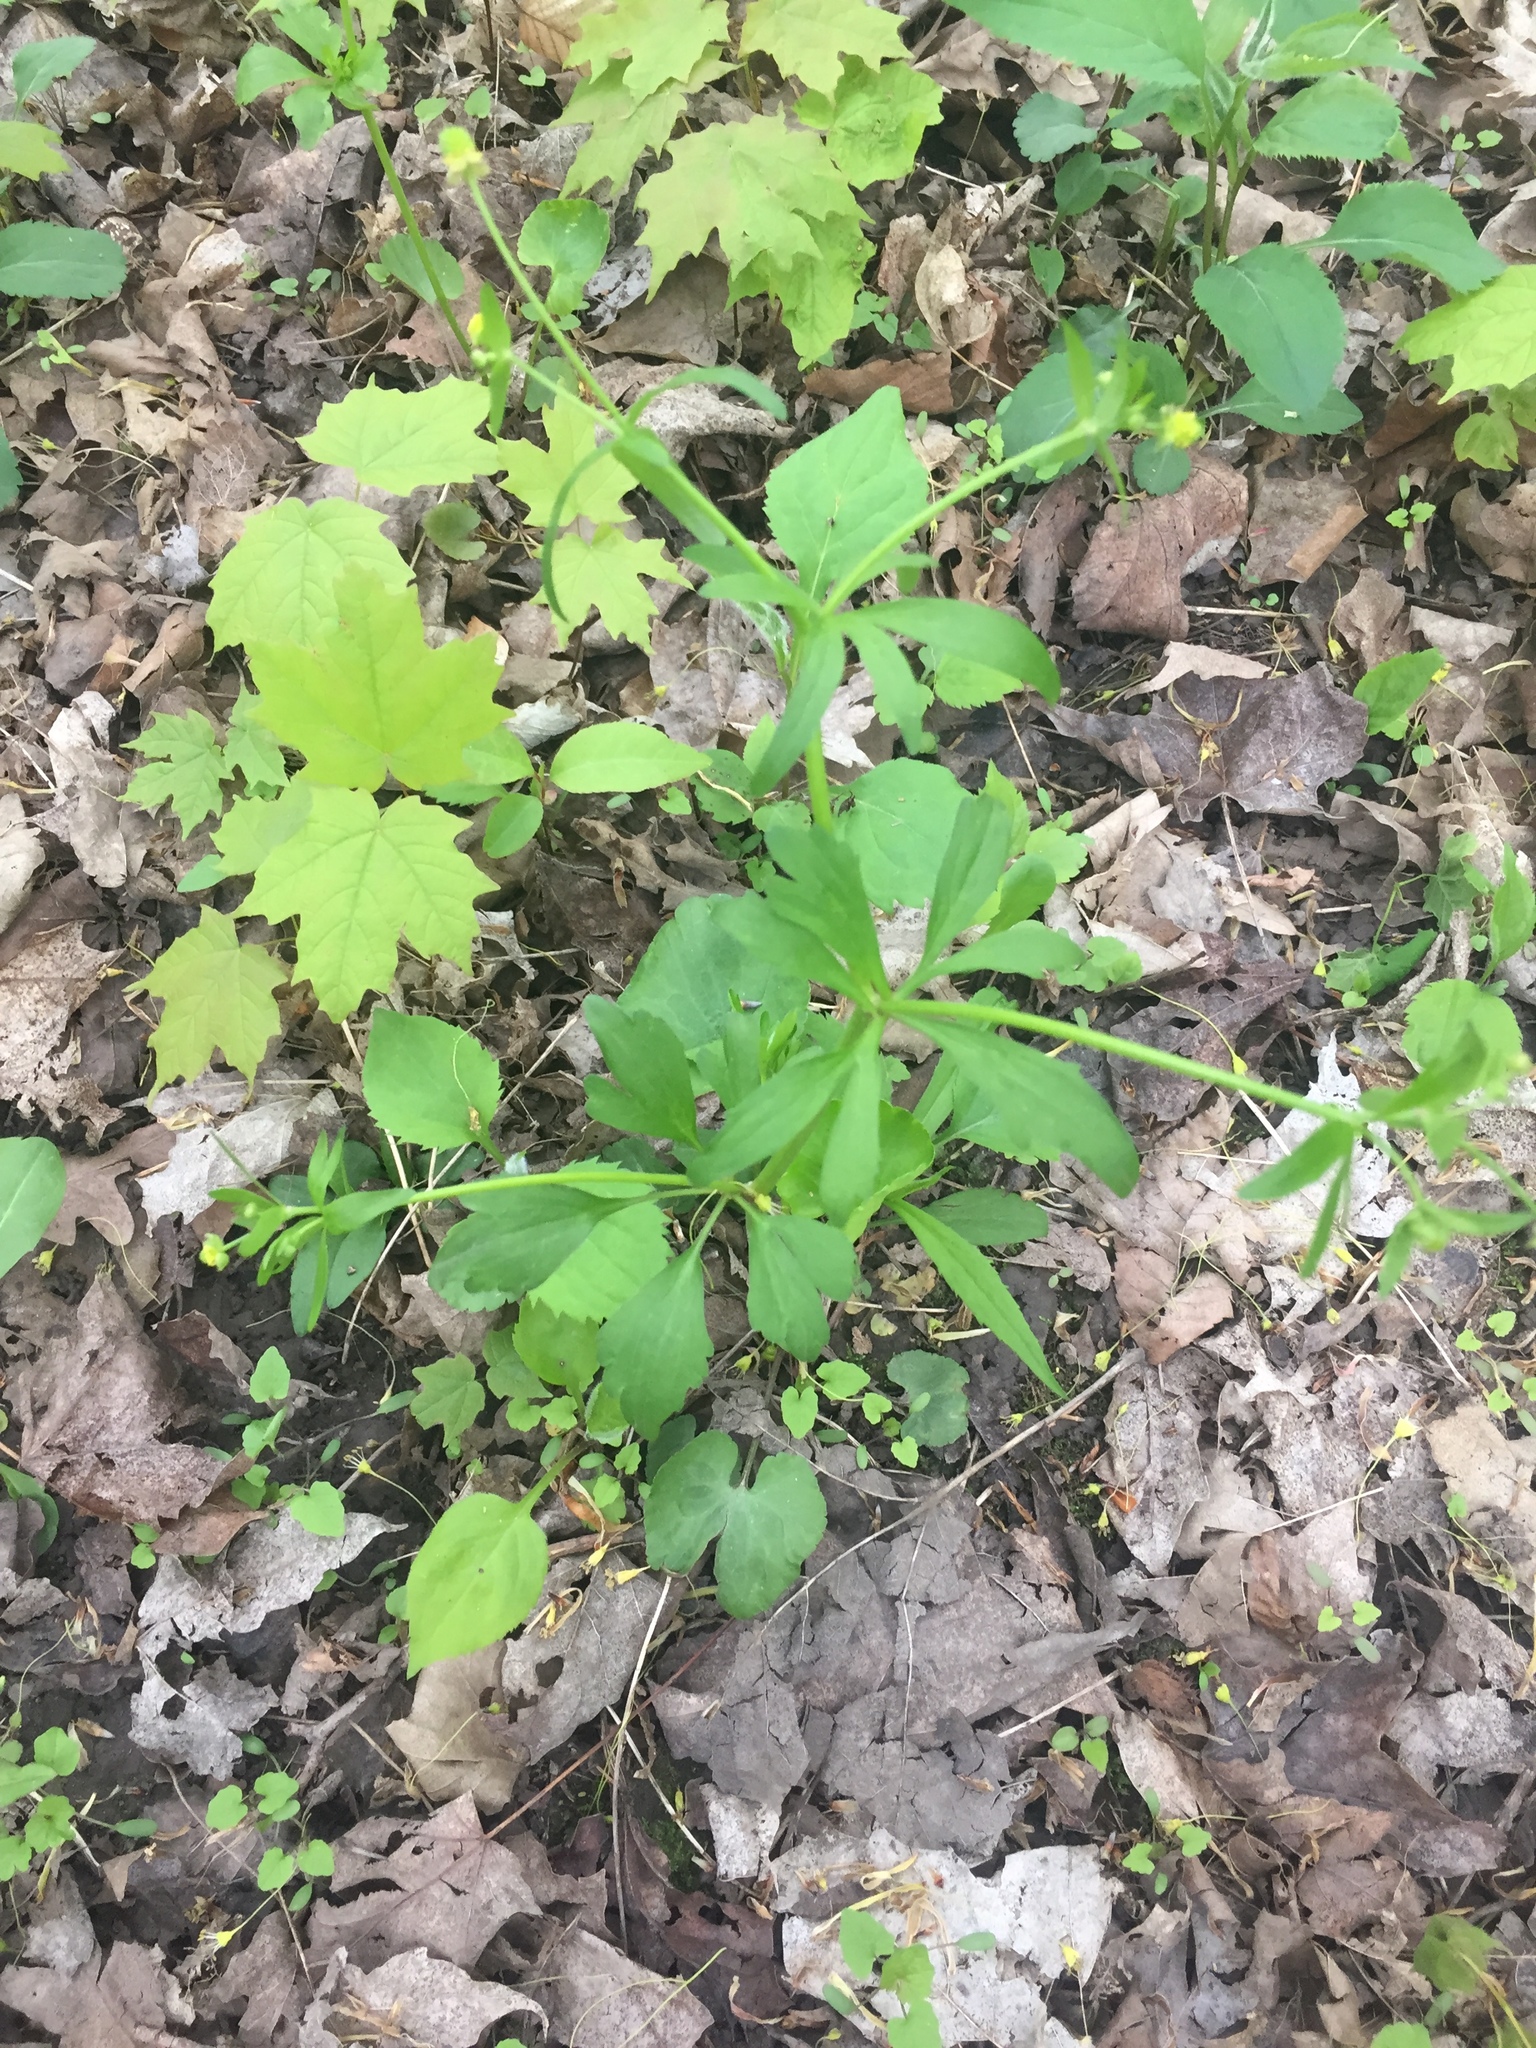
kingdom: Plantae
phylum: Tracheophyta
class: Magnoliopsida
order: Ranunculales
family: Ranunculaceae
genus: Ranunculus
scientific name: Ranunculus abortivus
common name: Early wood buttercup
